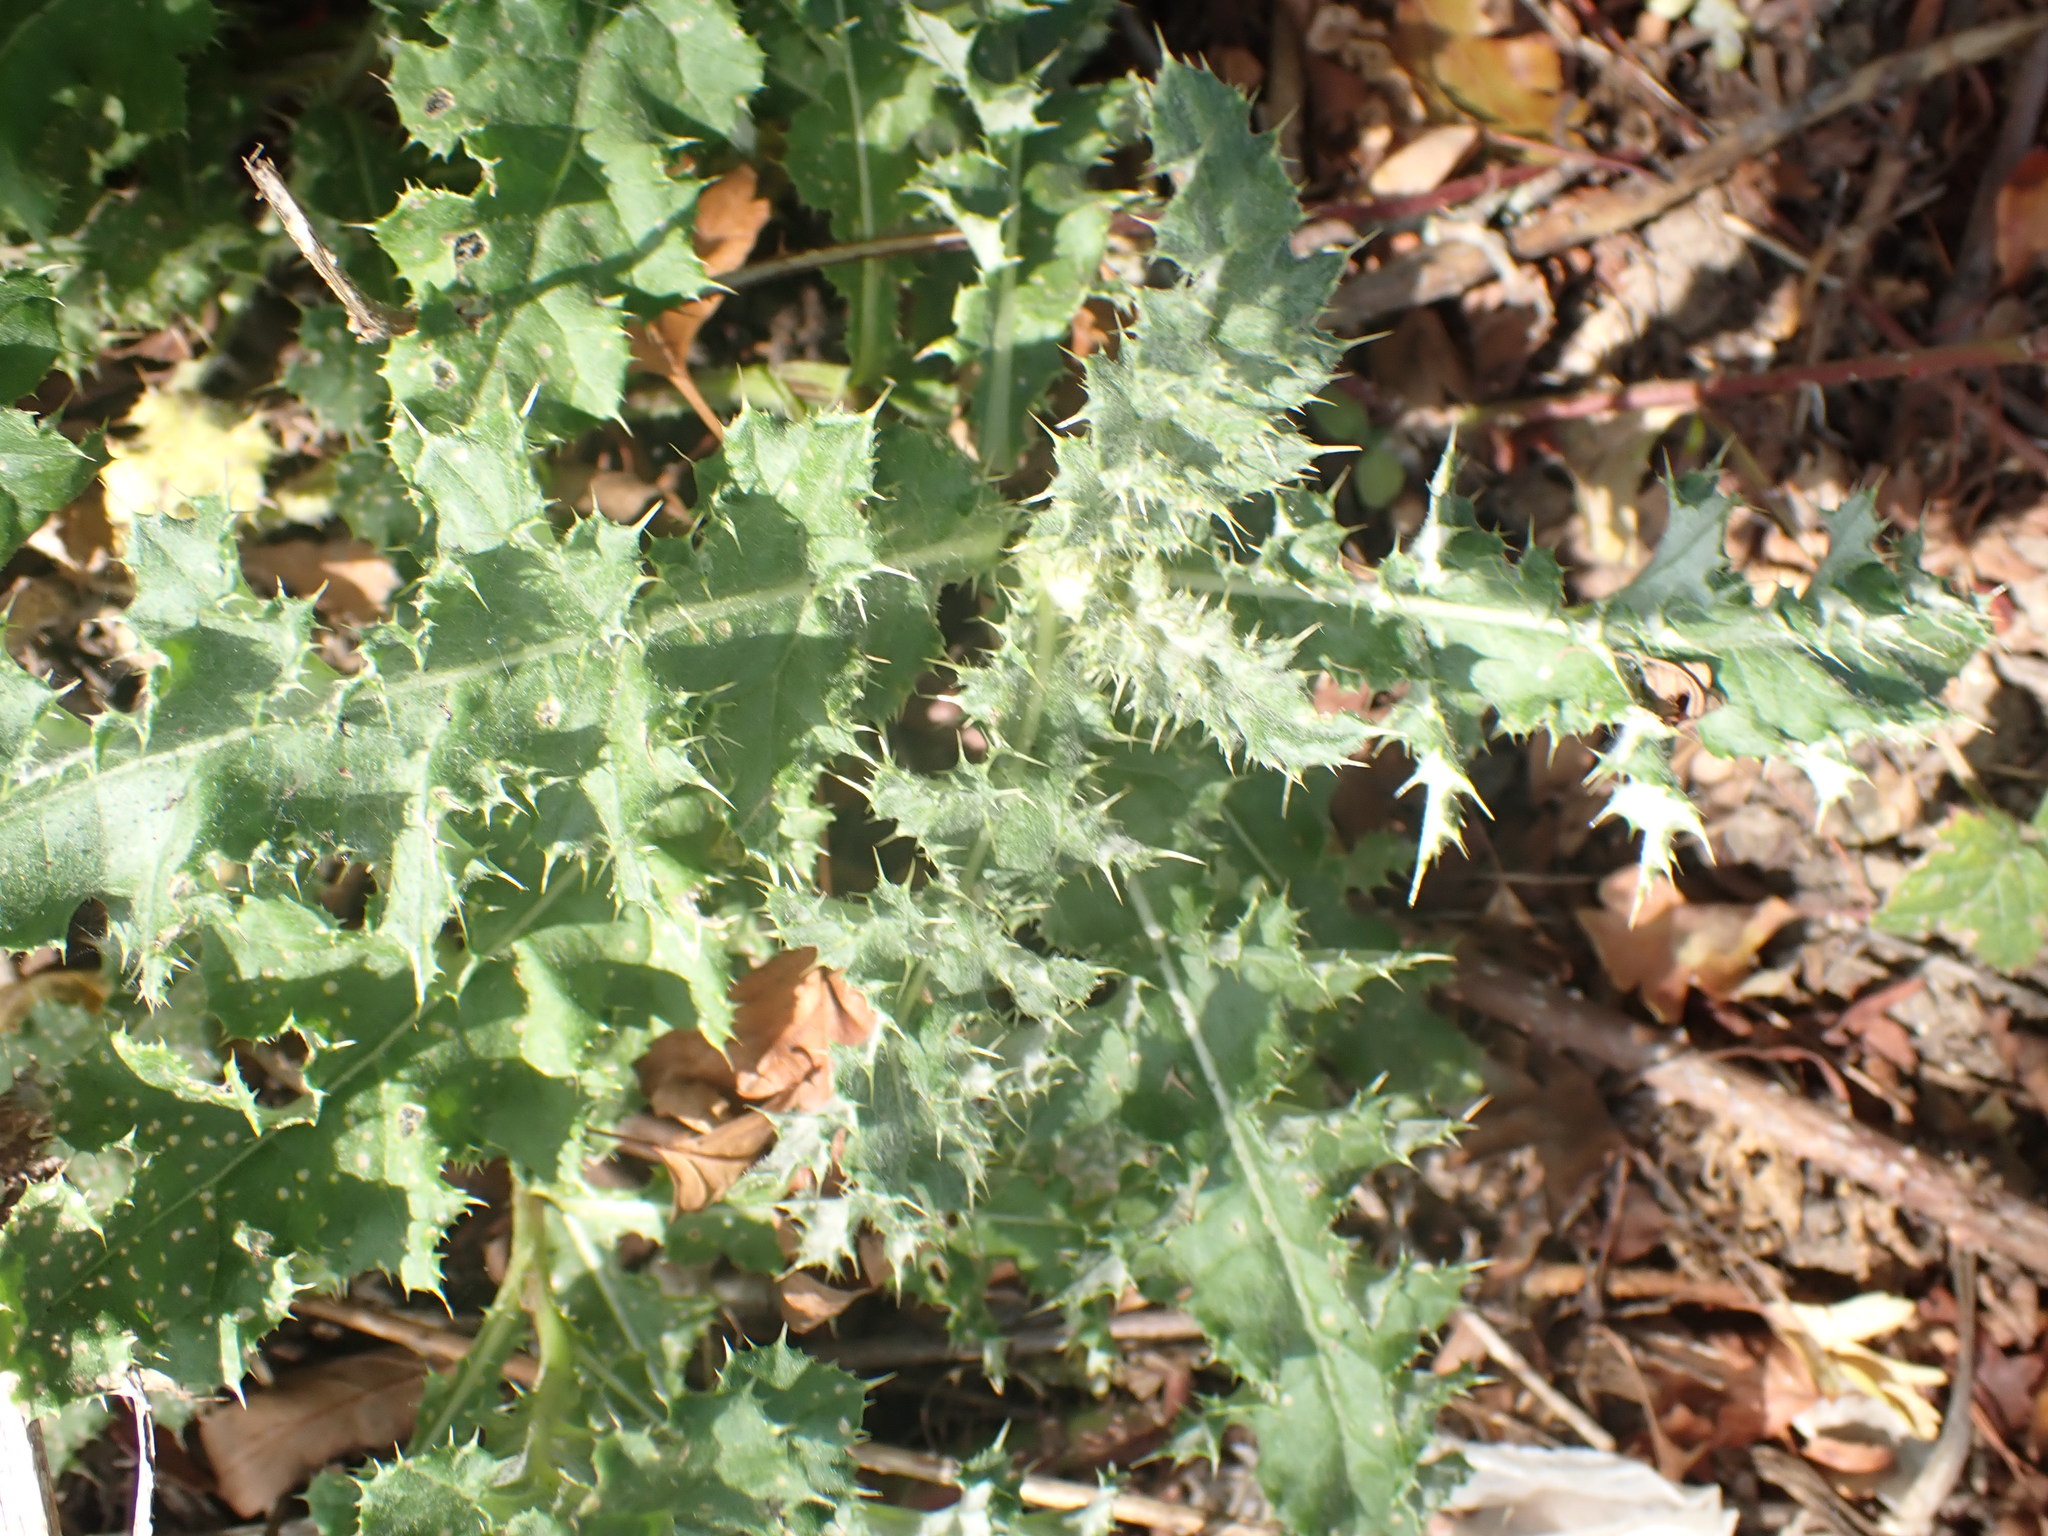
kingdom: Plantae
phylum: Tracheophyta
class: Magnoliopsida
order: Asterales
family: Asteraceae
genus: Cirsium
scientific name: Cirsium arvense
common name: Creeping thistle
